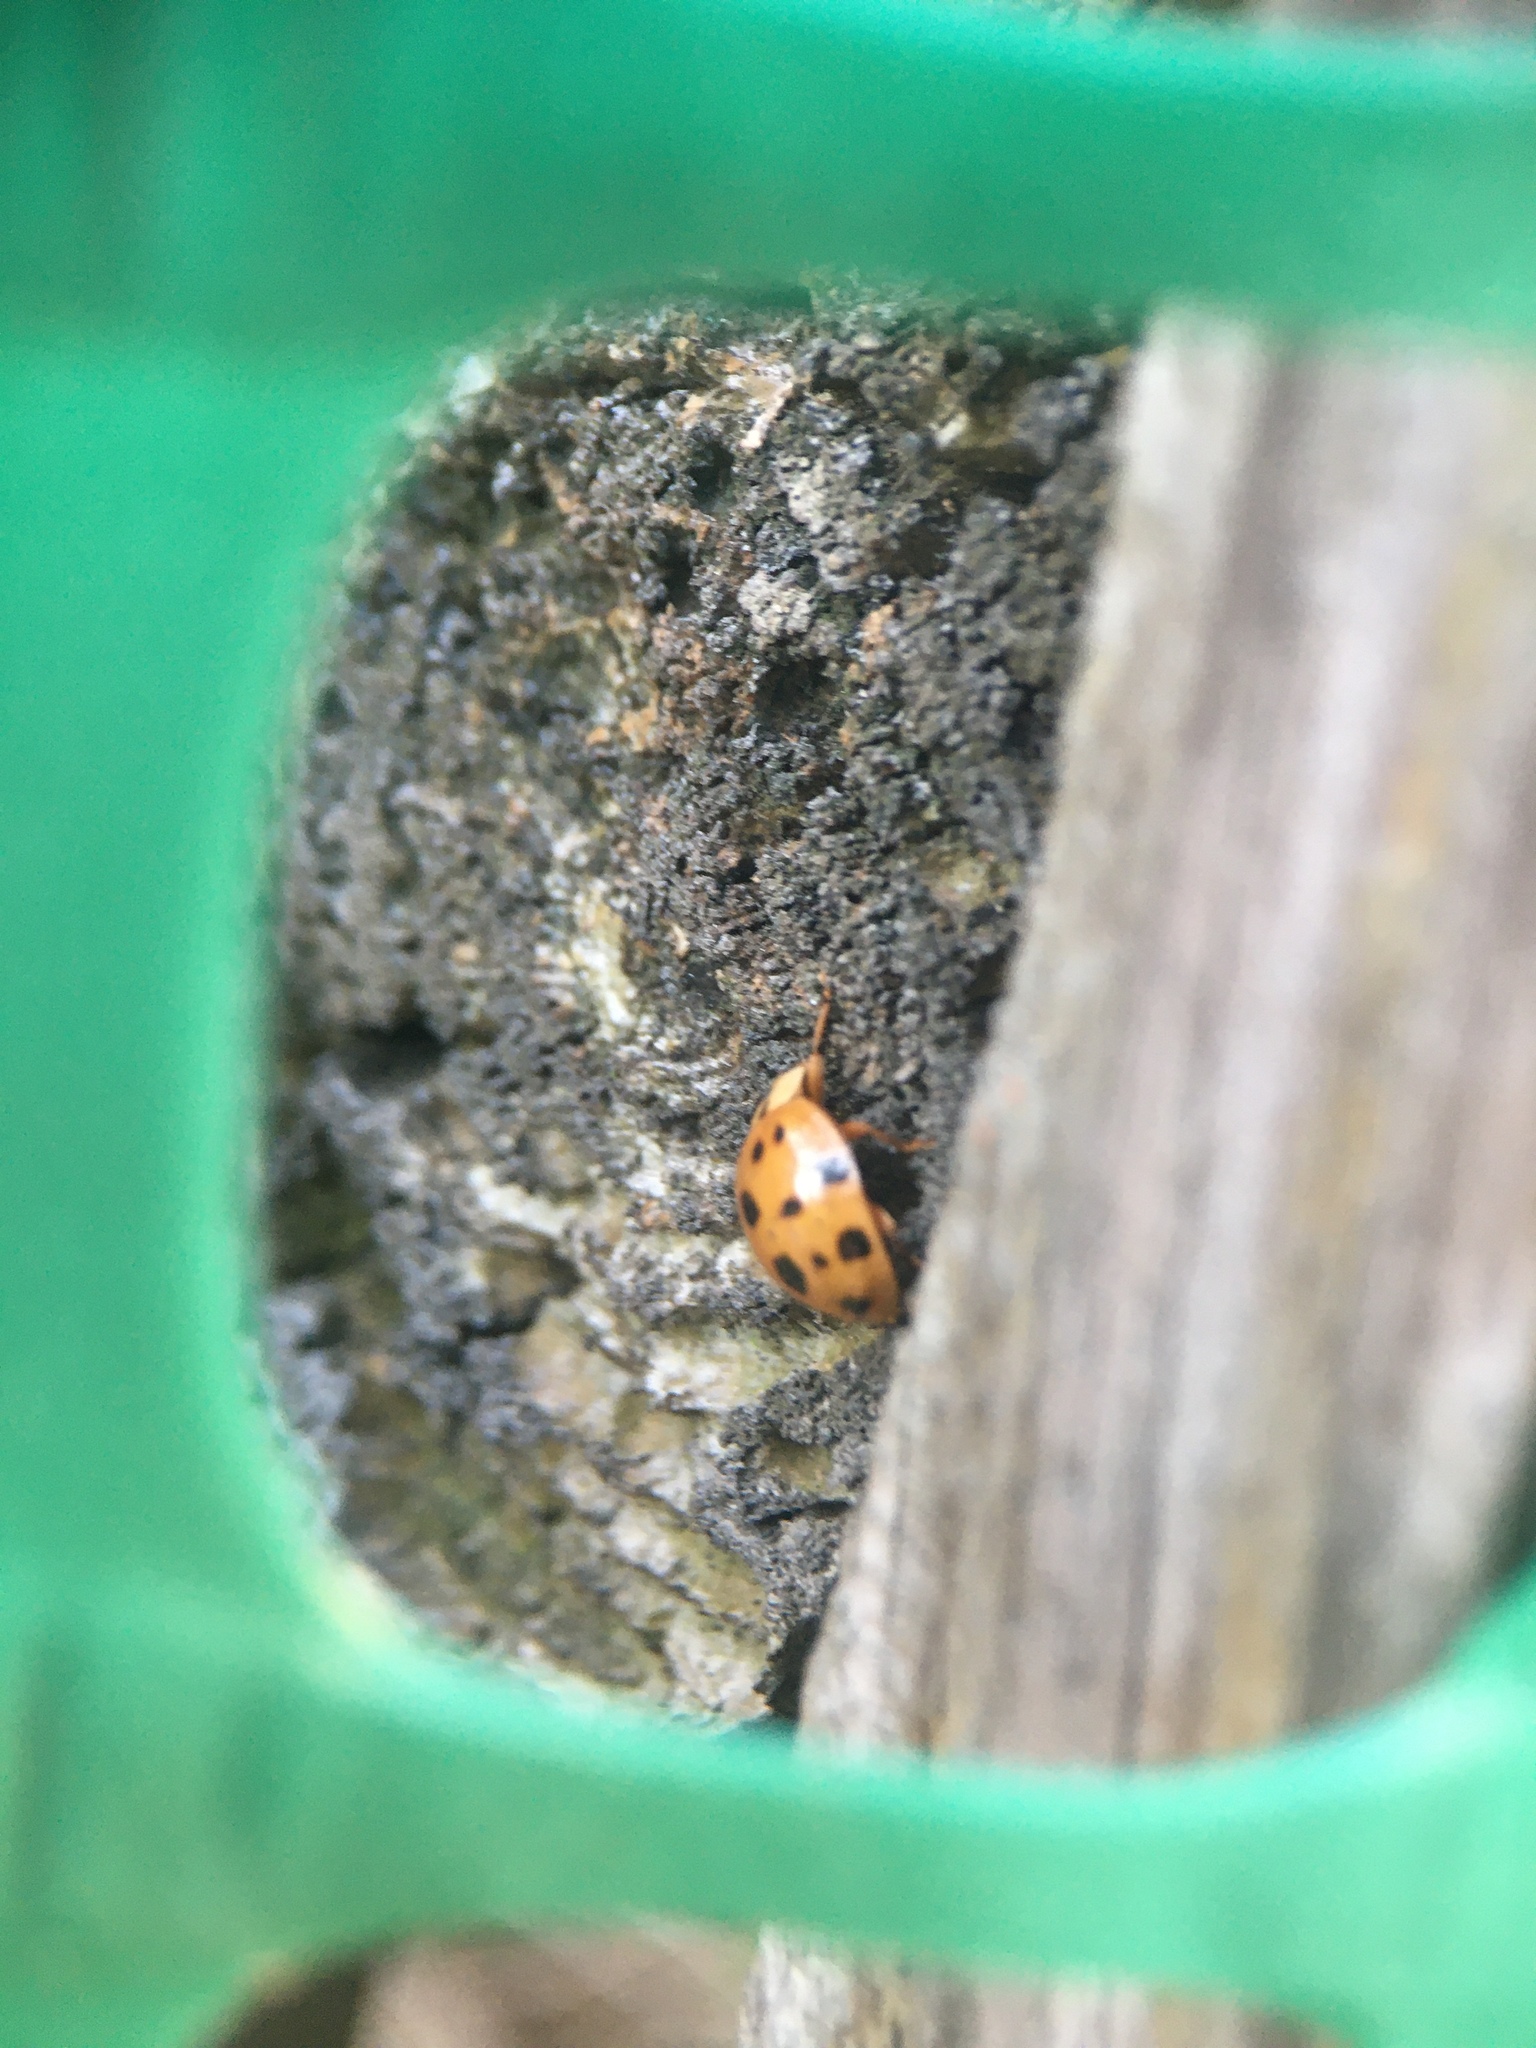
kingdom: Animalia
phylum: Arthropoda
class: Insecta
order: Coleoptera
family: Coccinellidae
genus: Harmonia
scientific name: Harmonia axyridis
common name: Harlequin ladybird
